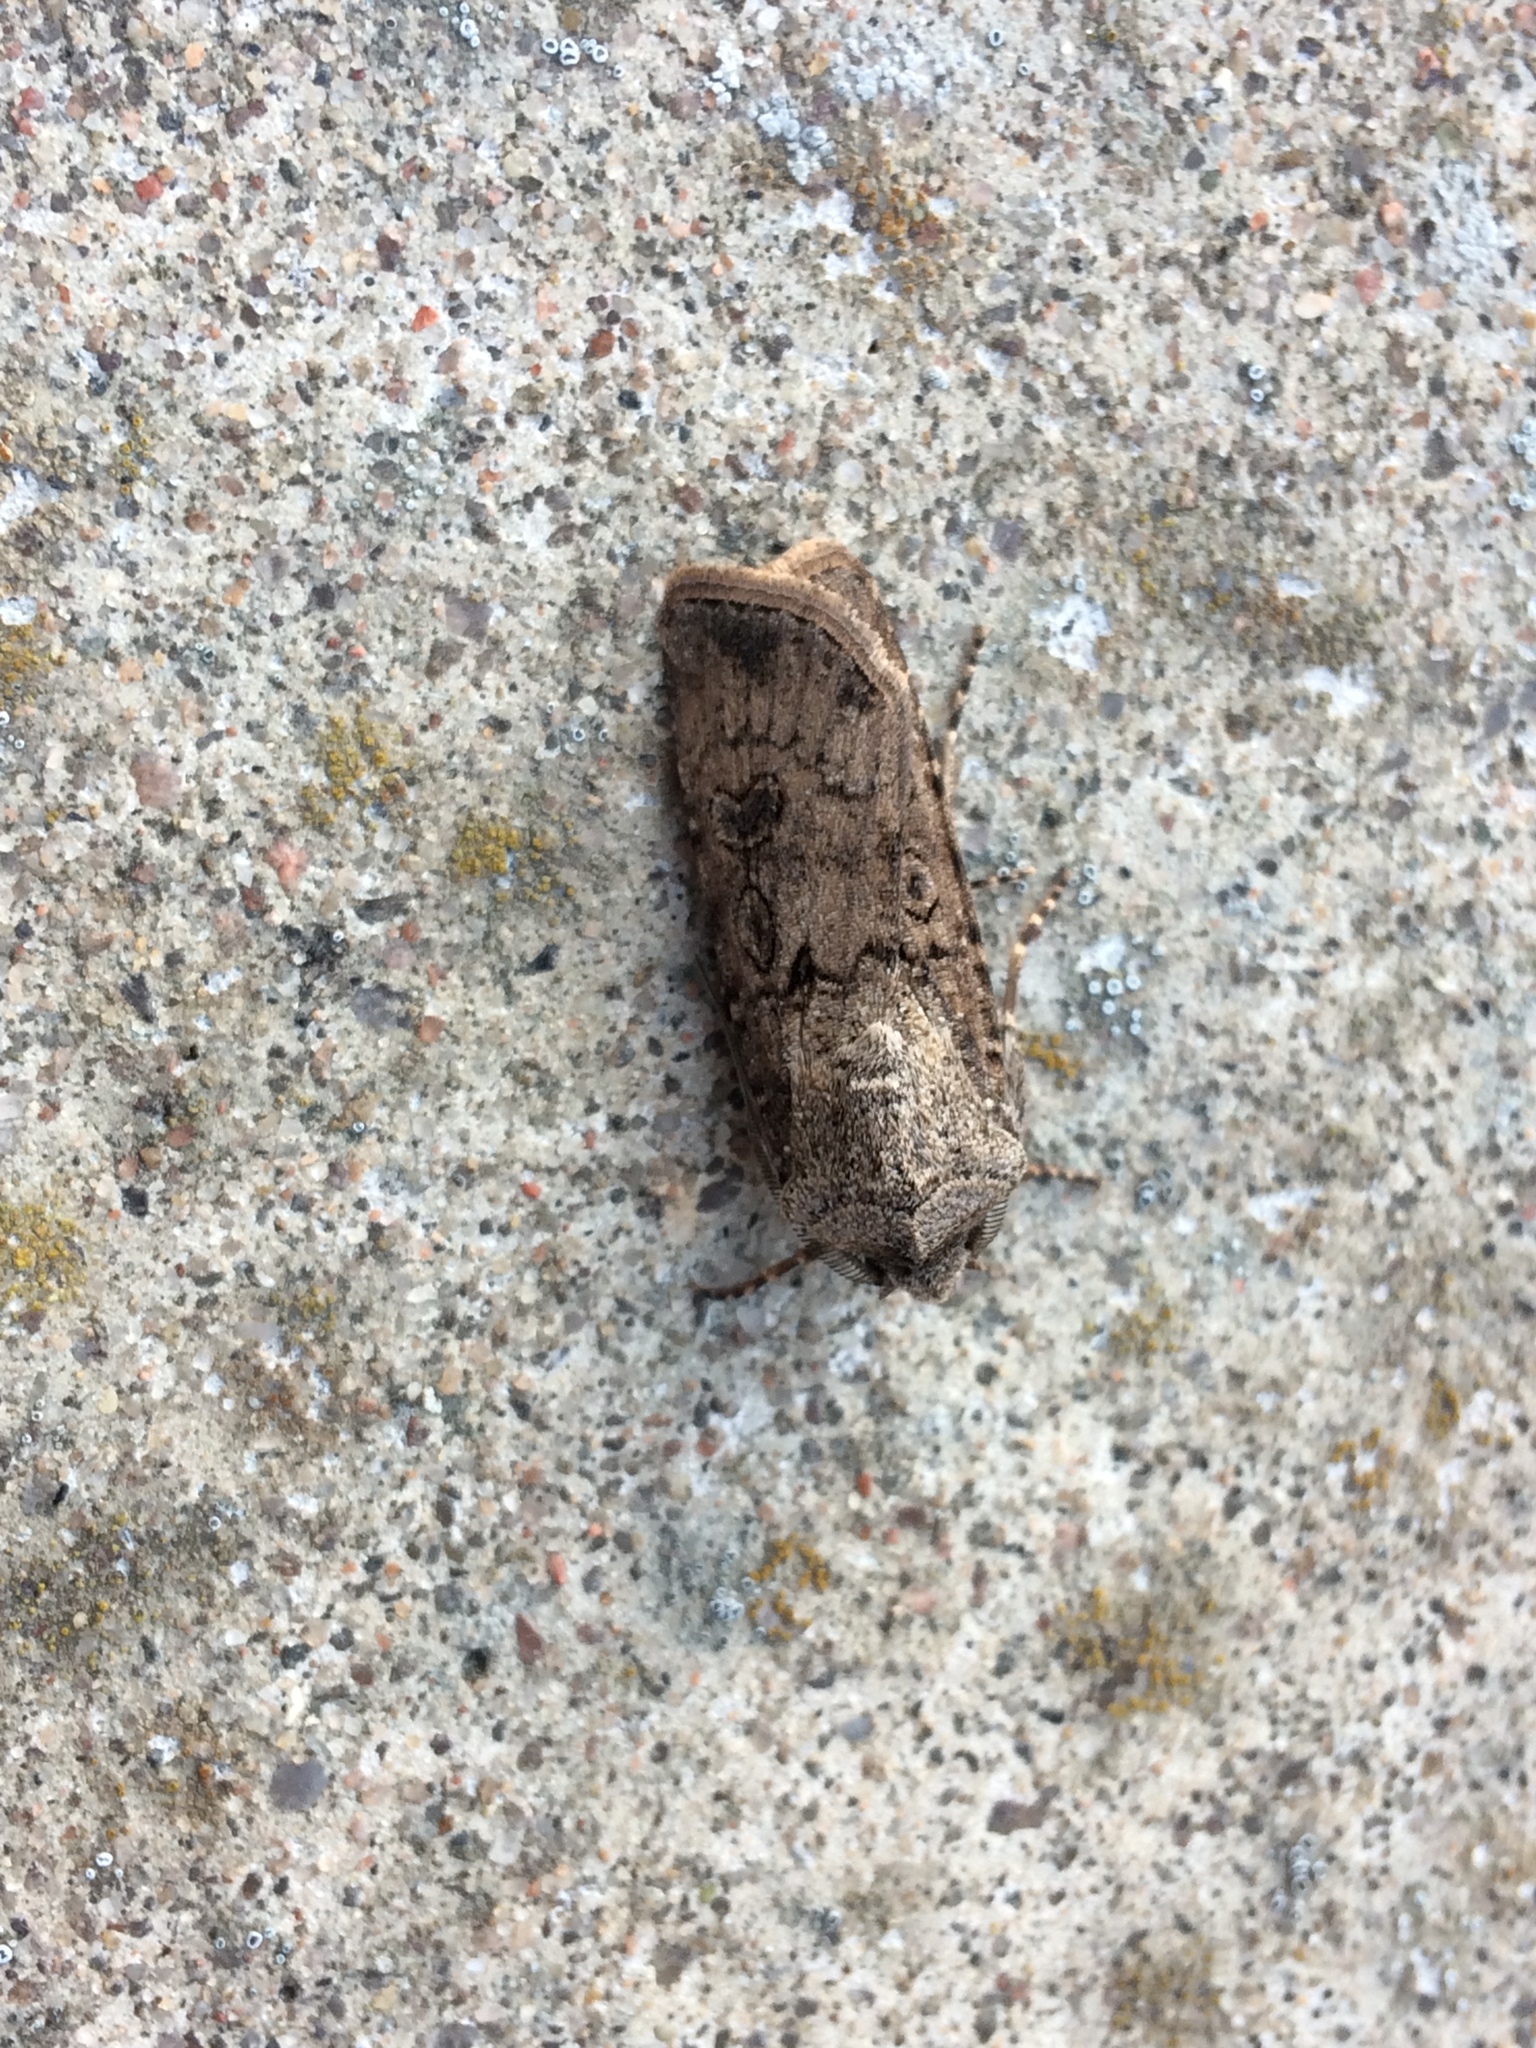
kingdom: Animalia
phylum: Arthropoda
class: Insecta
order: Lepidoptera
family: Noctuidae
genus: Agrotis
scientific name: Agrotis segetum
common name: Turnip moth
